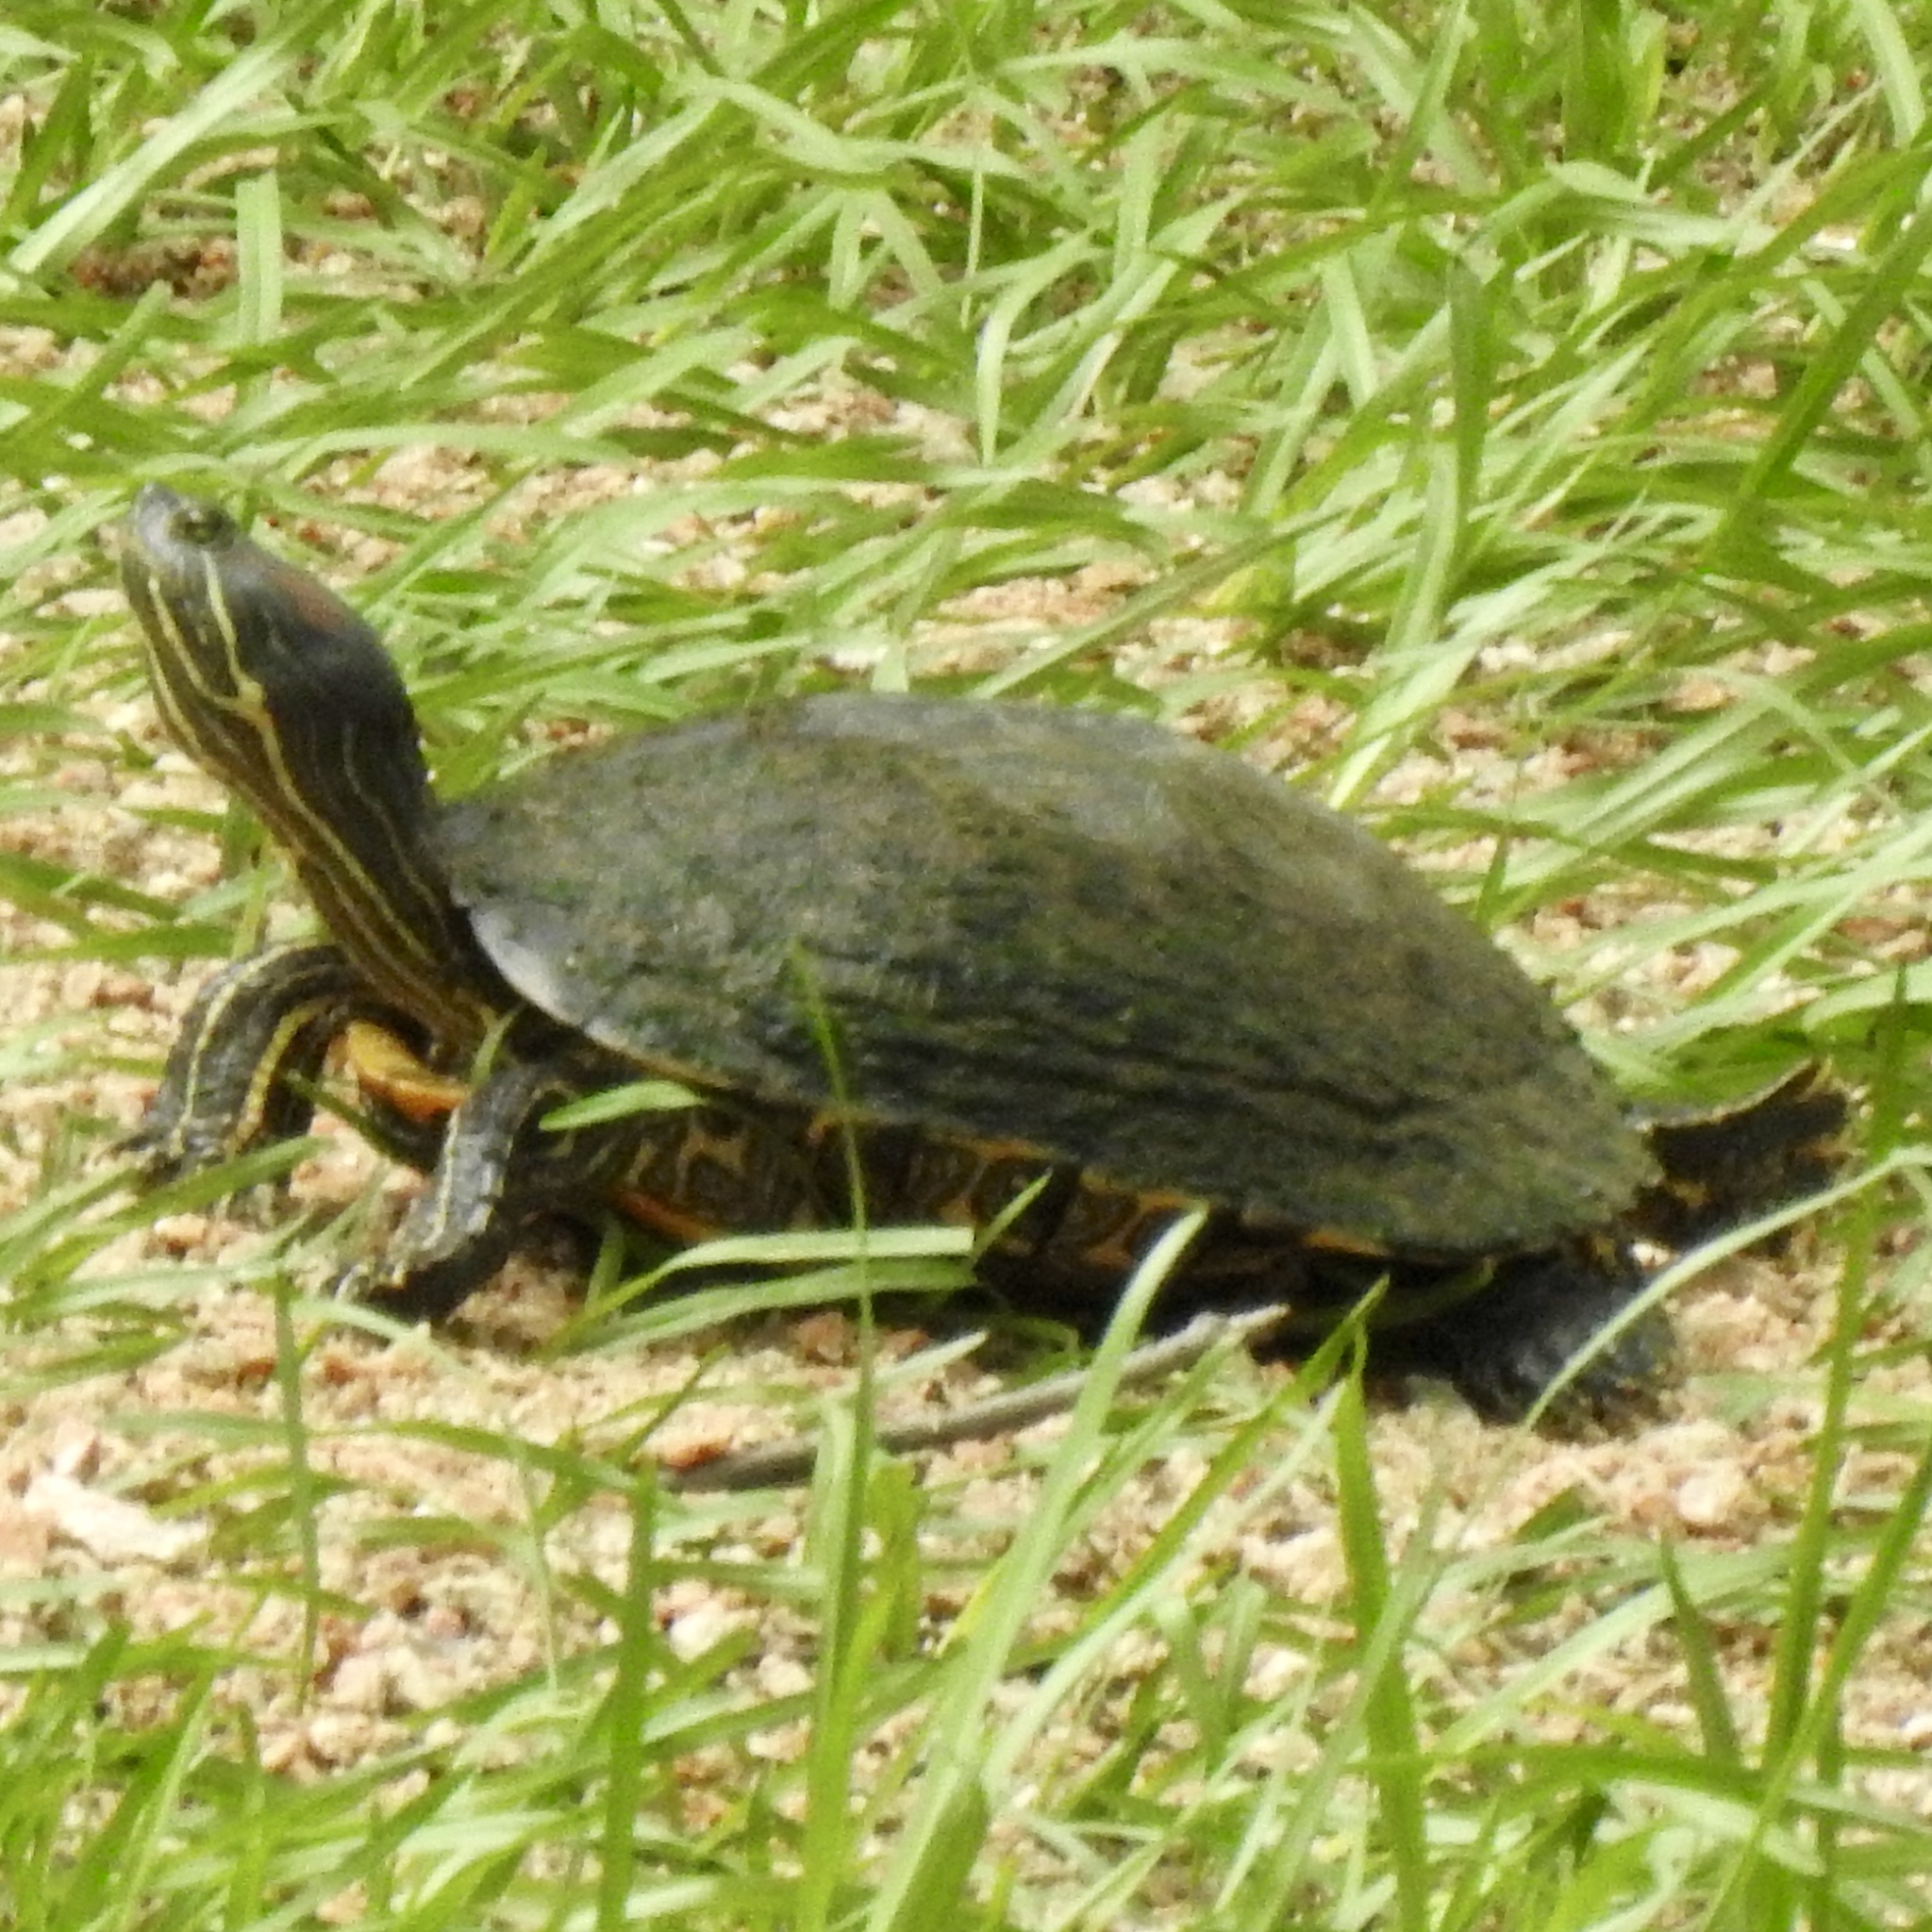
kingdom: Animalia
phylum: Chordata
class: Testudines
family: Emydidae
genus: Trachemys
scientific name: Trachemys scripta
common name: Slider
